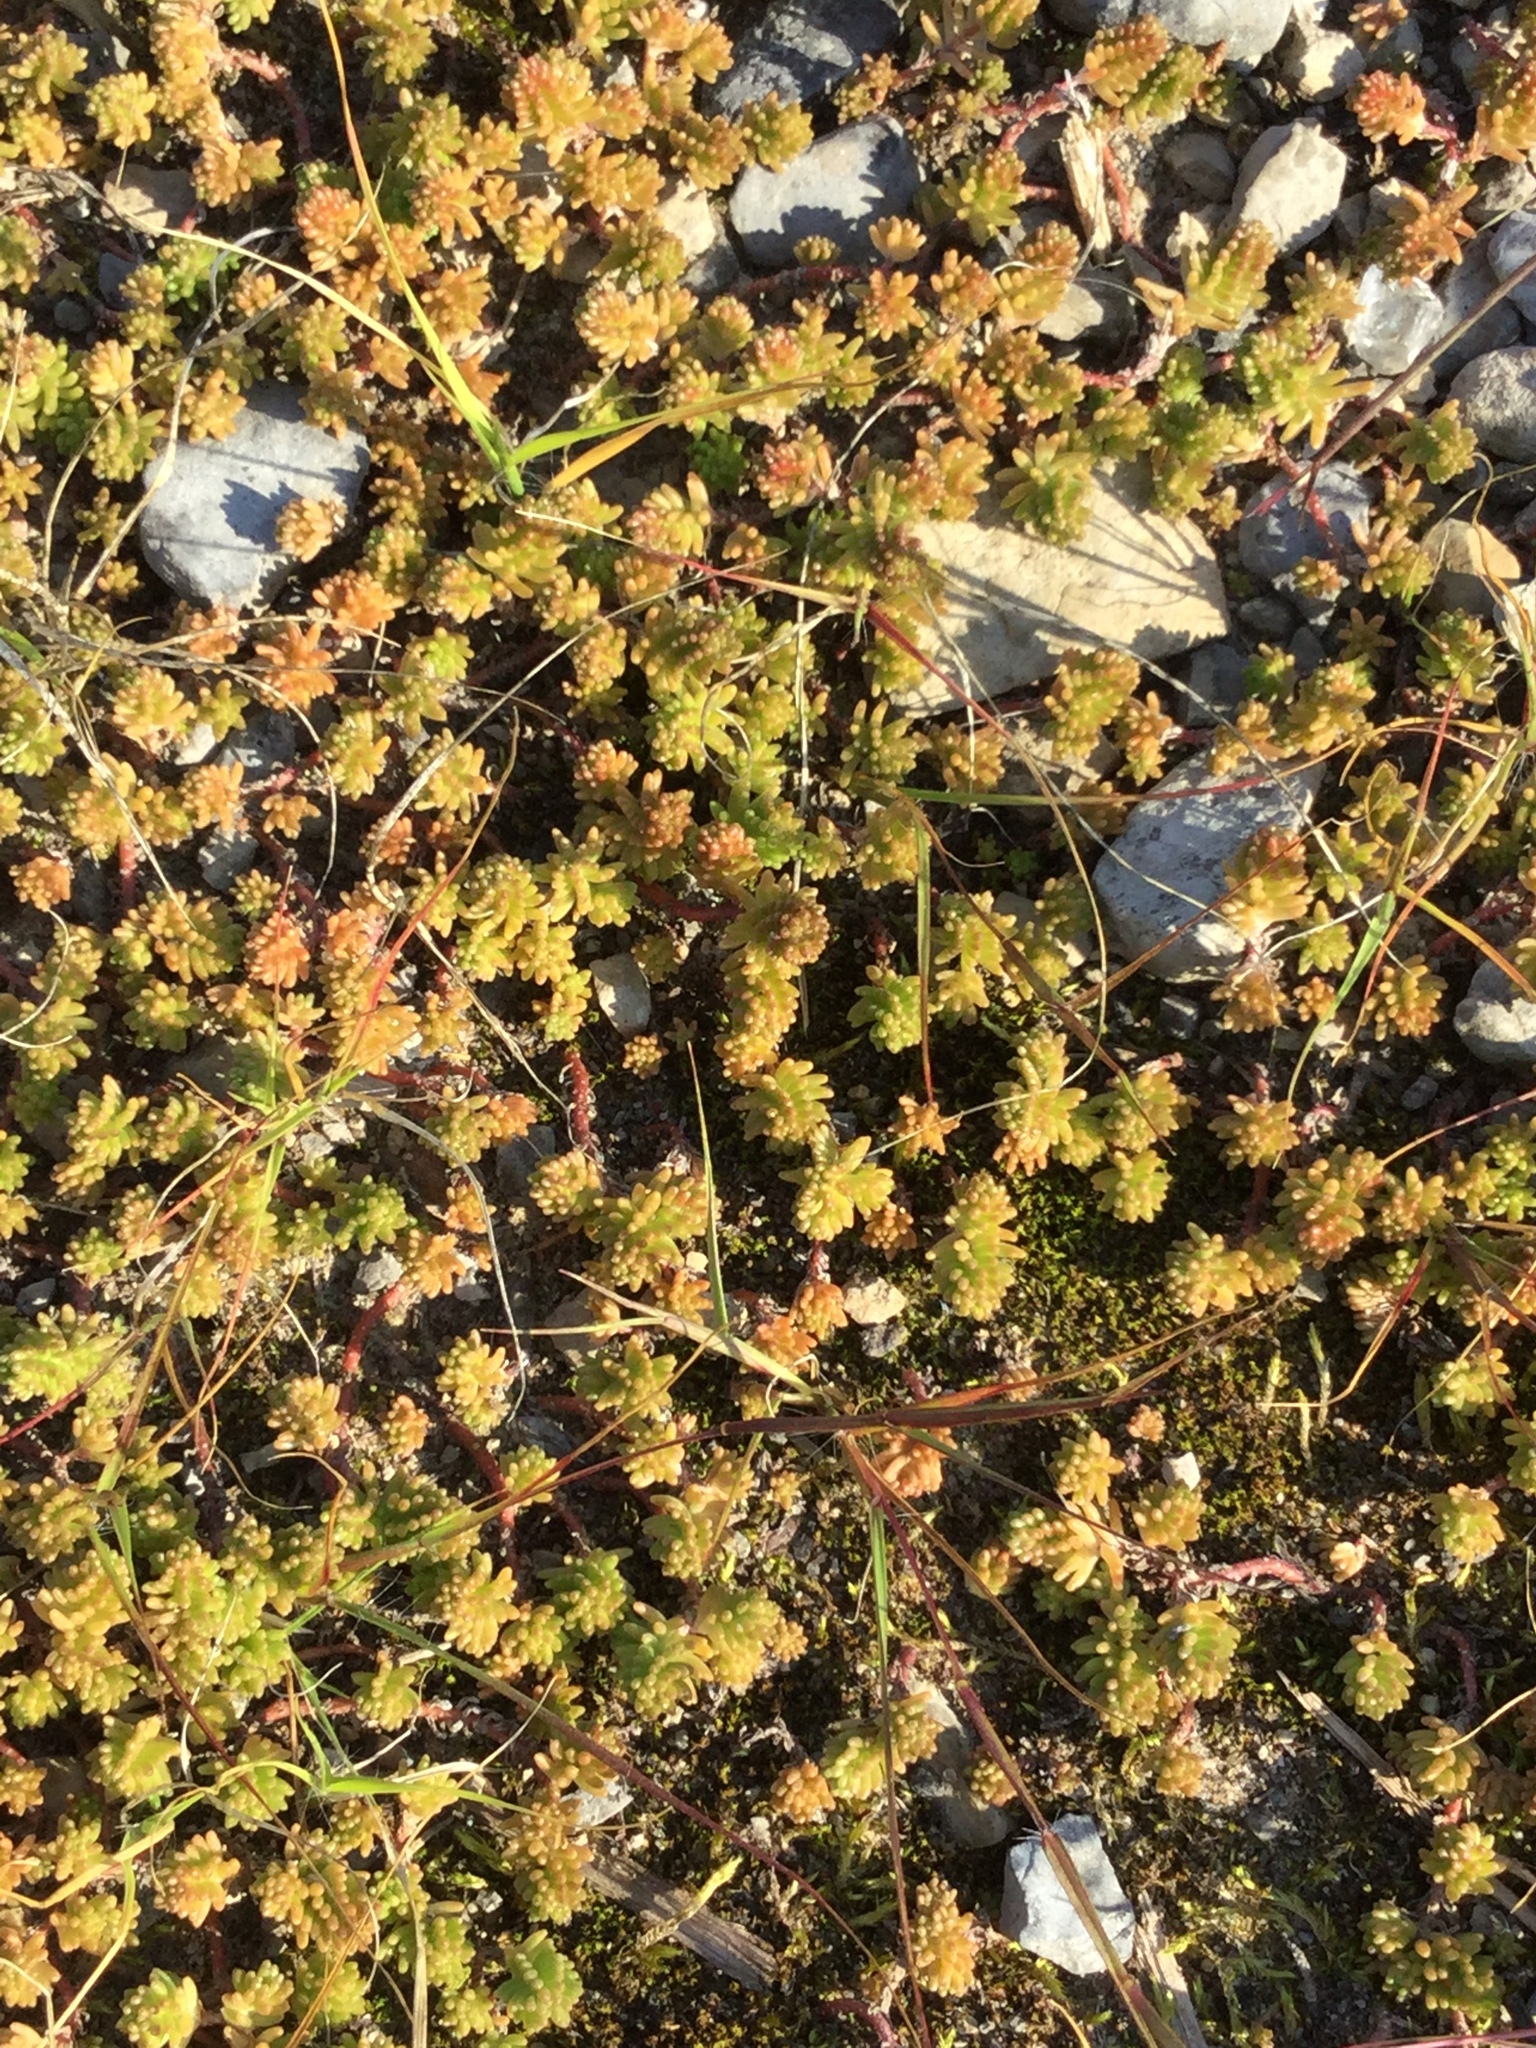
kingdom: Plantae
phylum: Tracheophyta
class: Magnoliopsida
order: Saxifragales
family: Crassulaceae
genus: Sedum
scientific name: Sedum sexangulare
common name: Tasteless stonecrop
